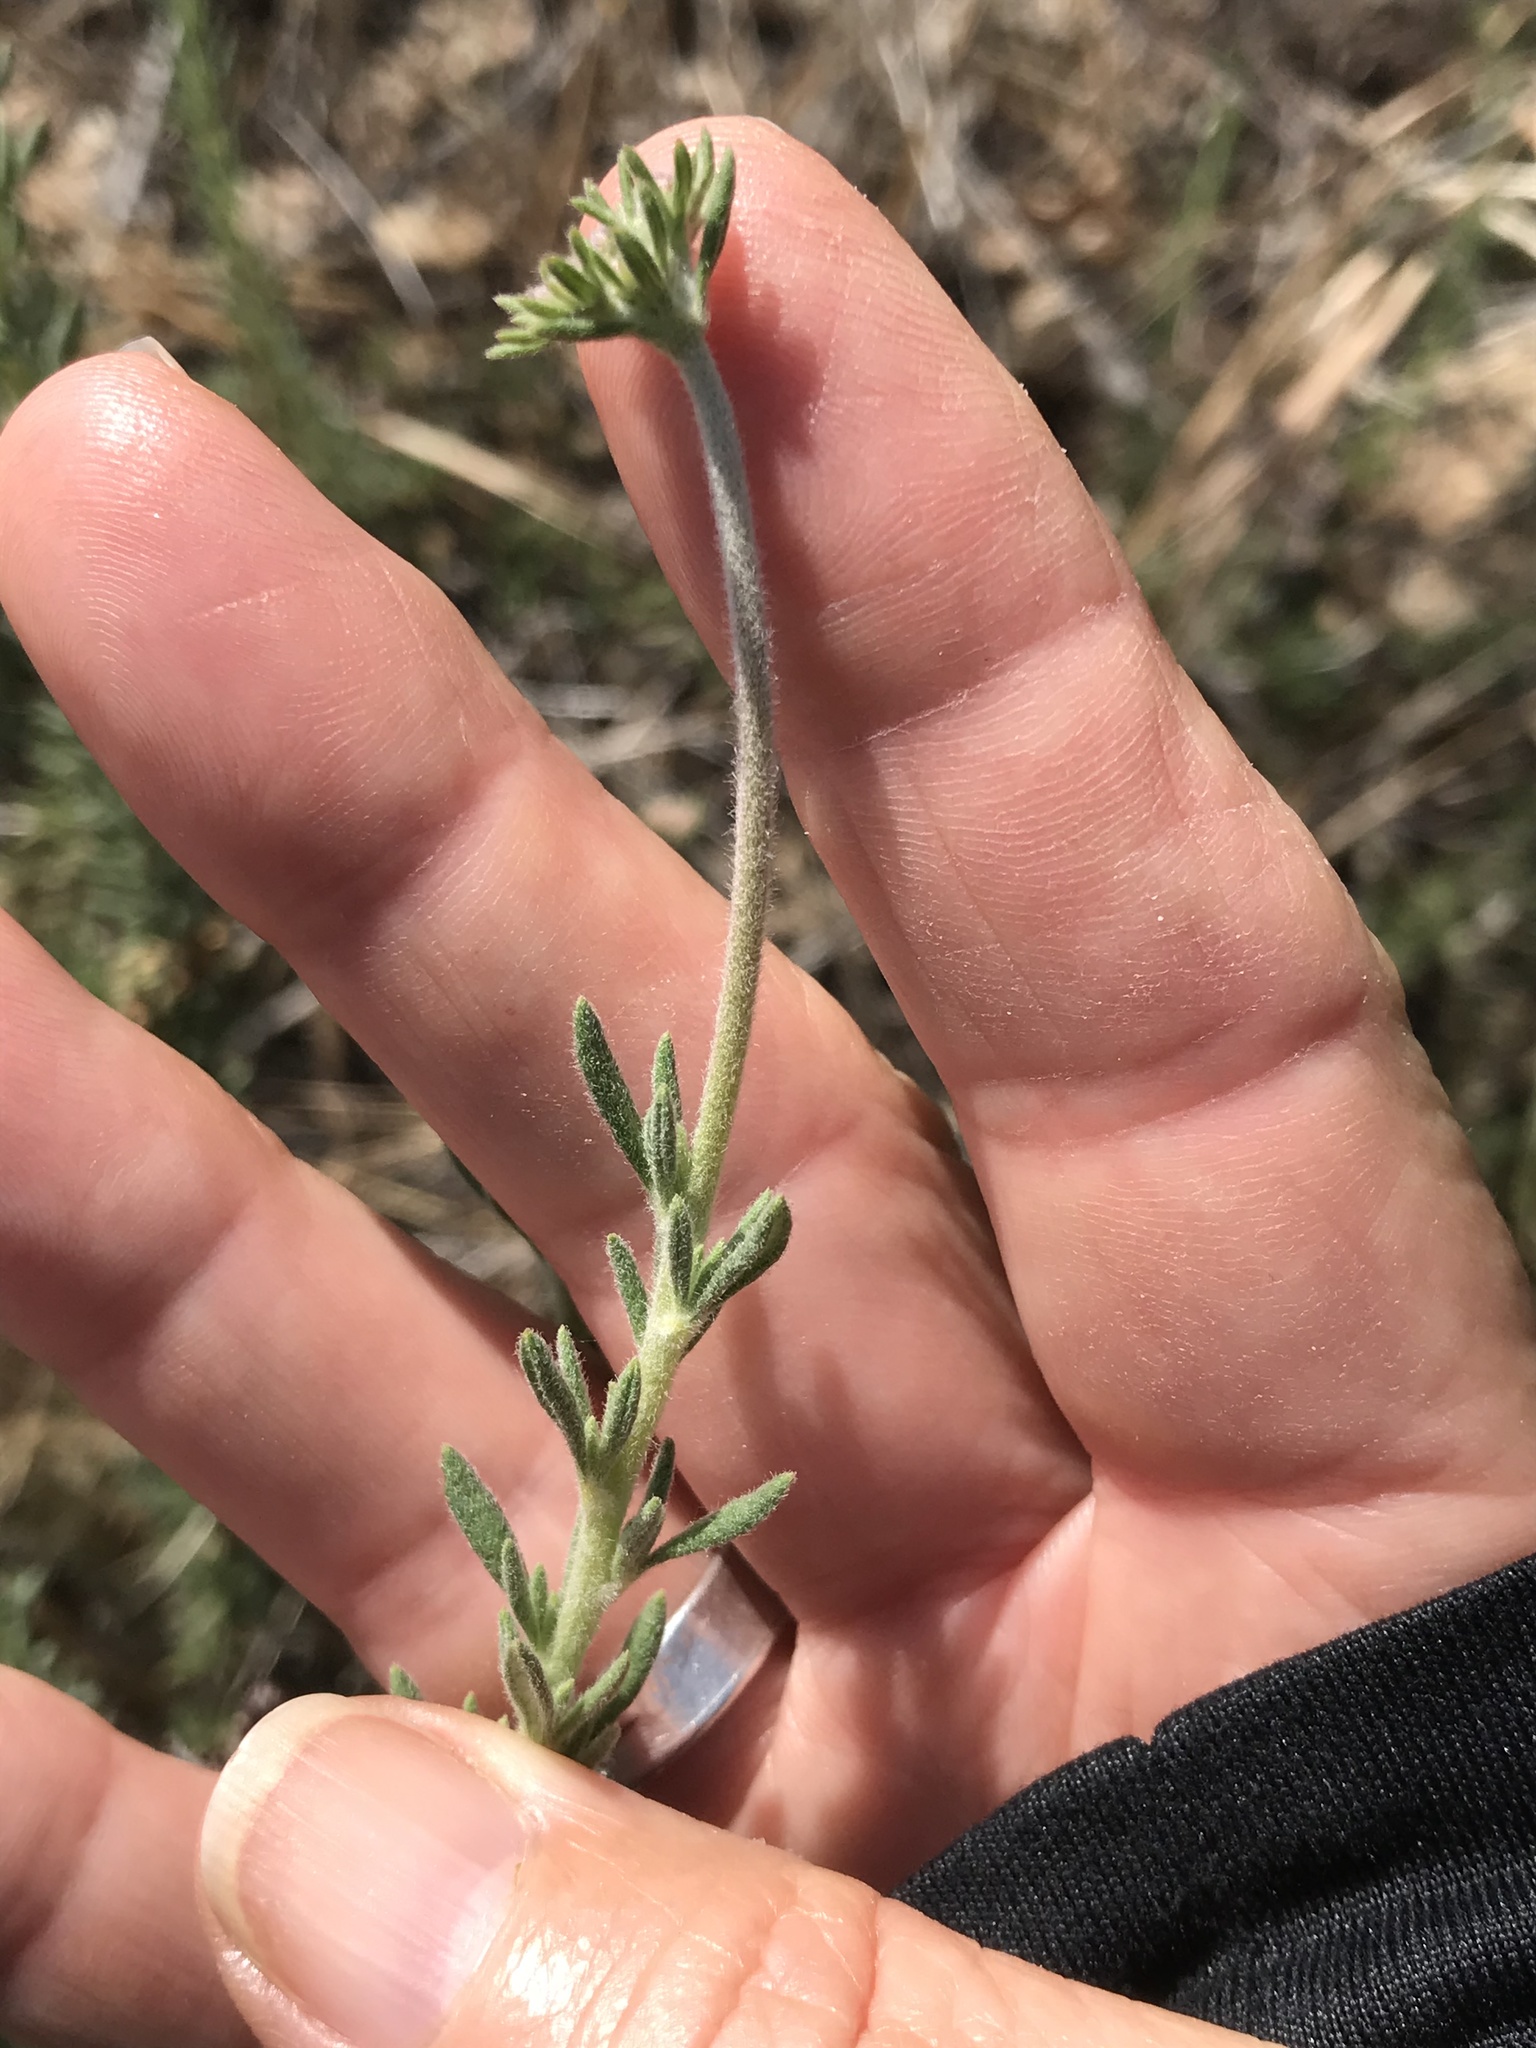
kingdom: Plantae
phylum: Tracheophyta
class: Magnoliopsida
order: Caryophyllales
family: Polygonaceae
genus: Eriogonum
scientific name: Eriogonum fasciculatum
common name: California wild buckwheat
